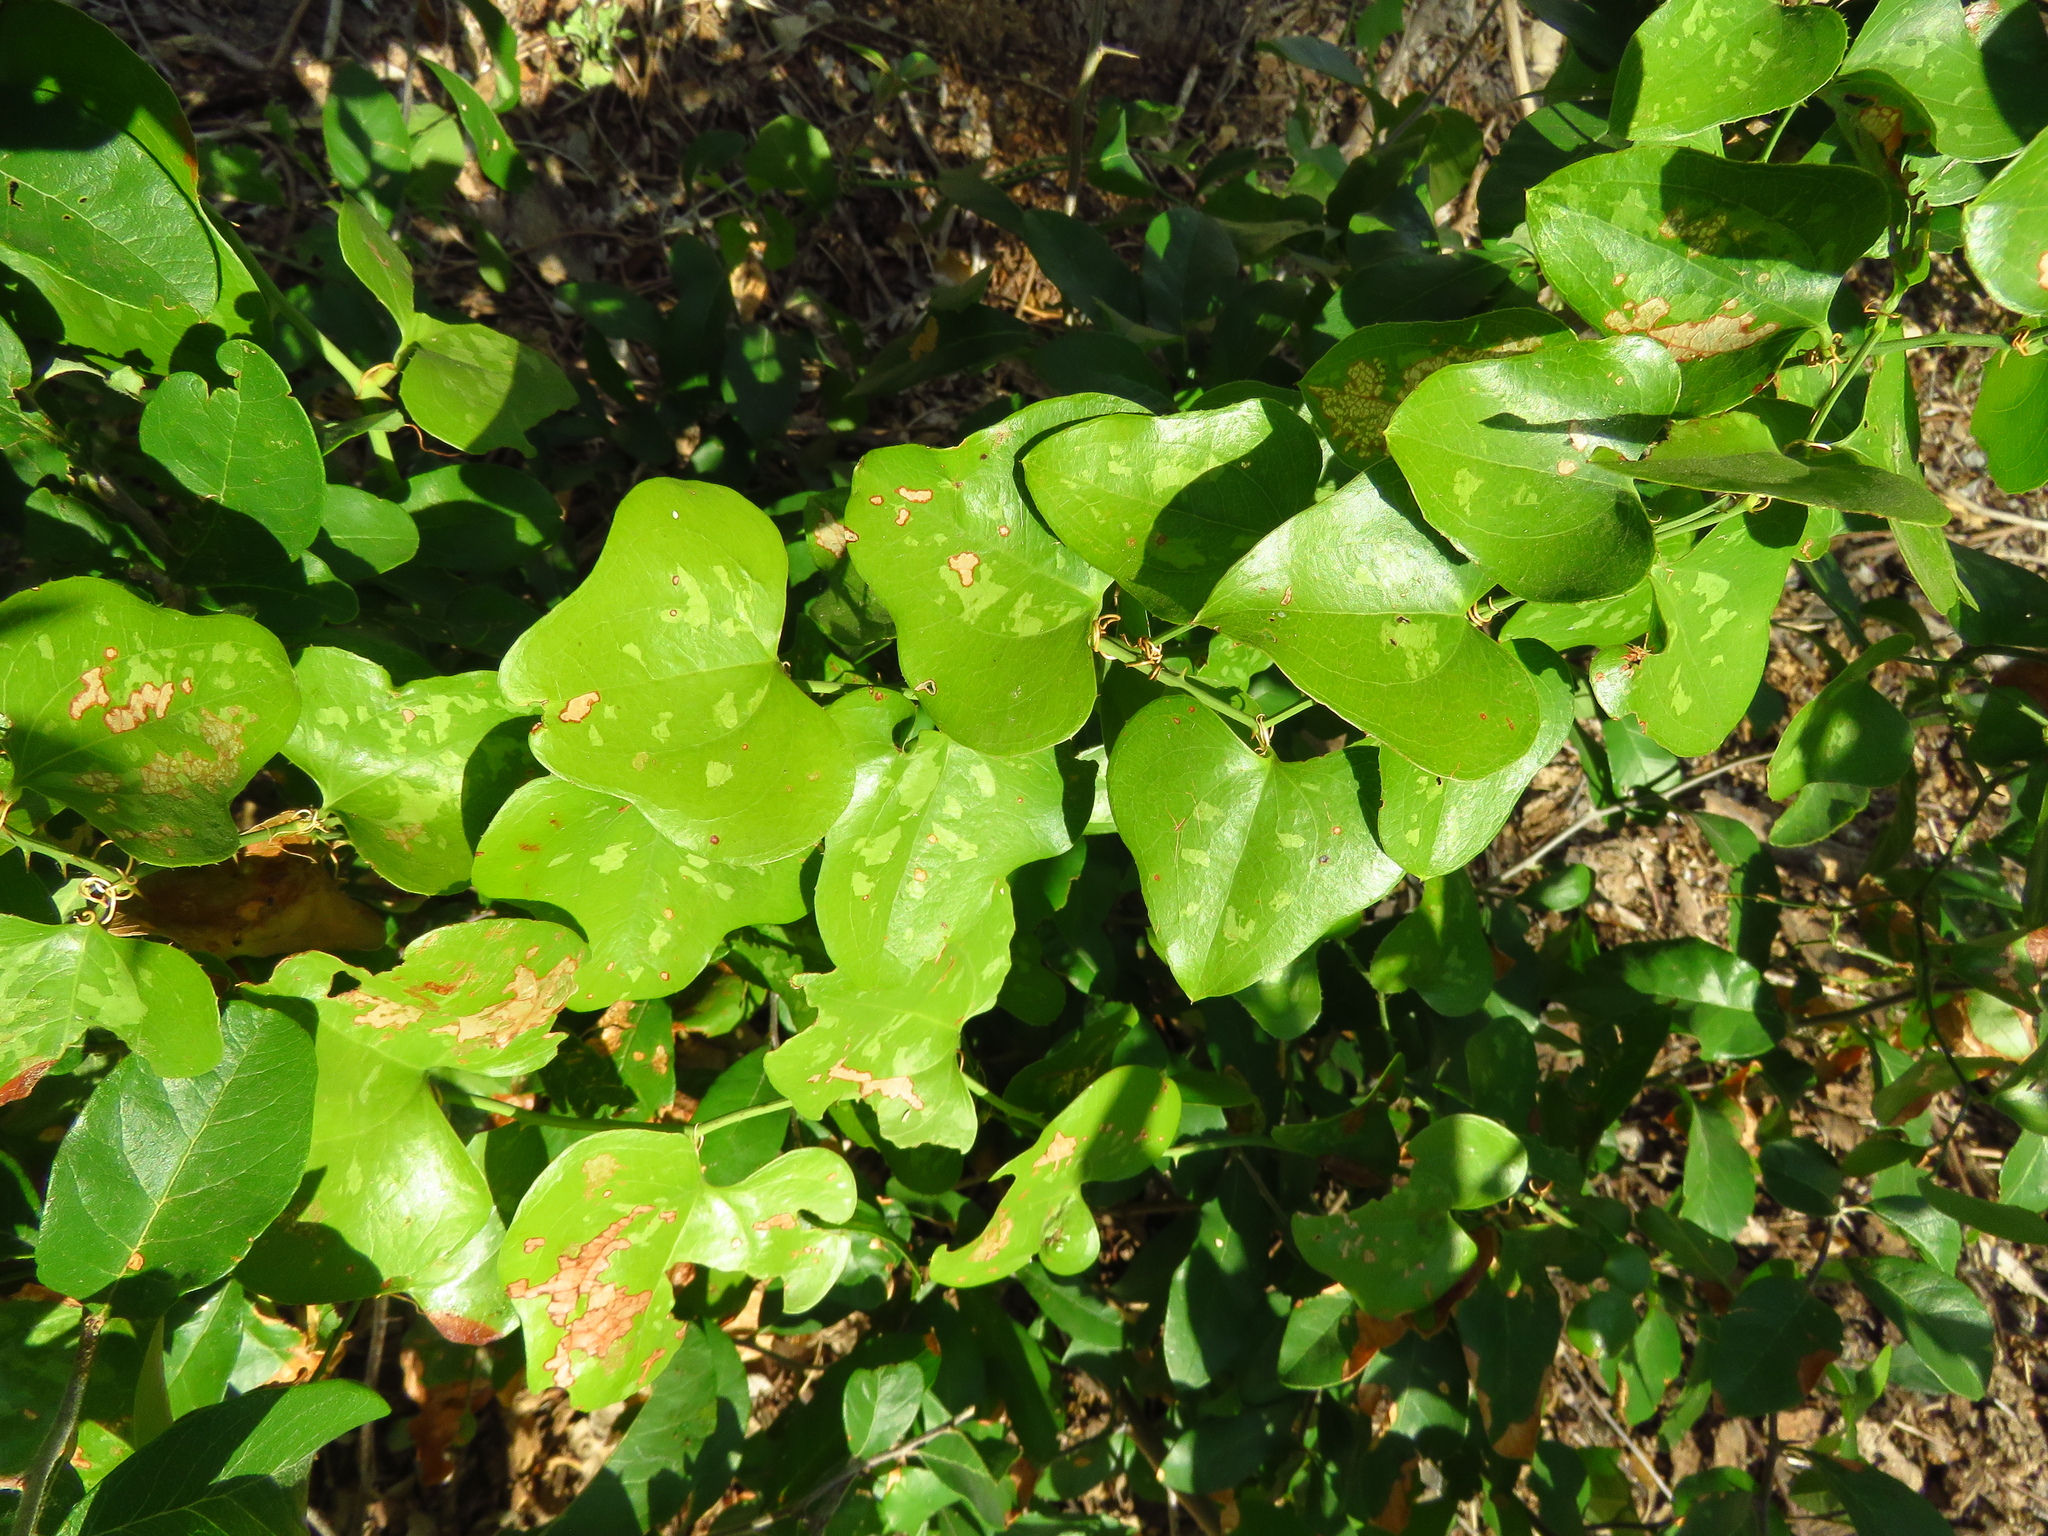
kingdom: Plantae
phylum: Tracheophyta
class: Liliopsida
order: Liliales
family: Smilacaceae
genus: Smilax
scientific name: Smilax bona-nox
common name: Catbrier
